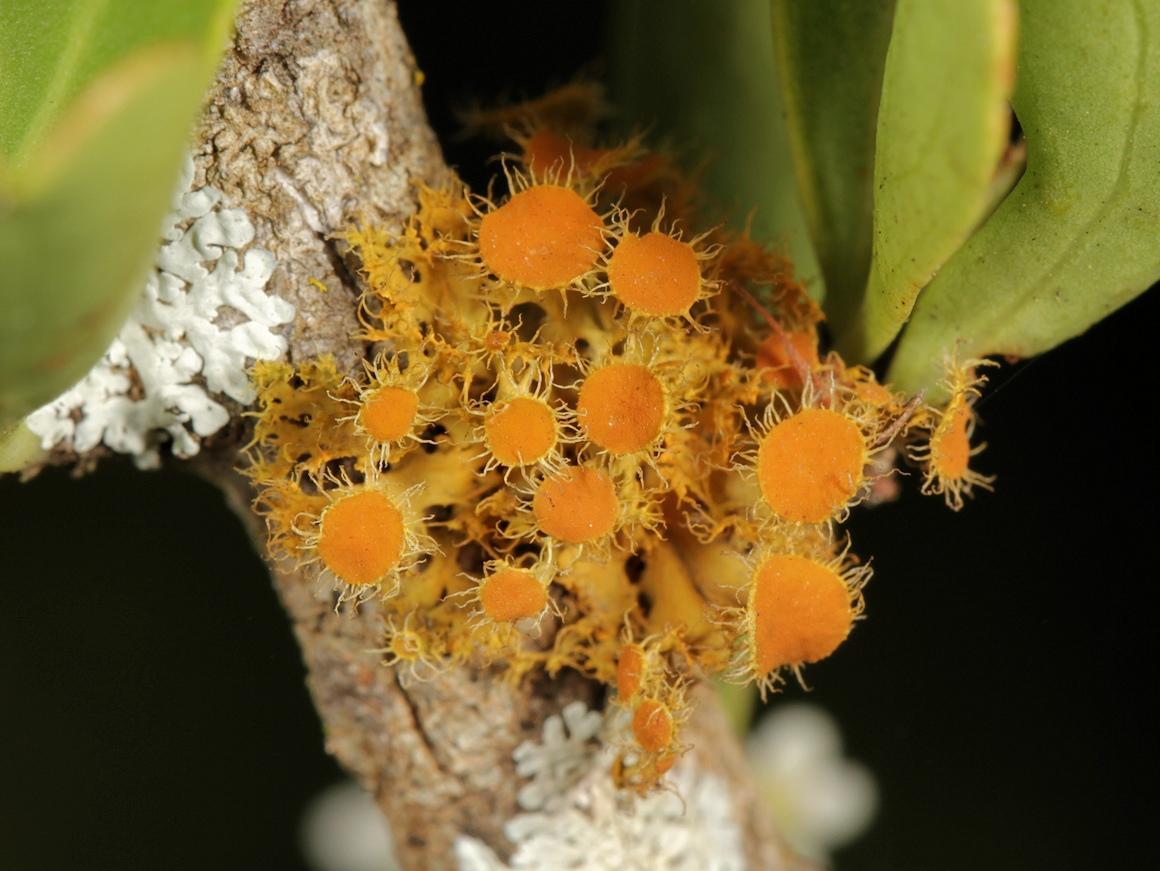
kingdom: Fungi
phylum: Ascomycota
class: Lecanoromycetes
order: Teloschistales
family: Teloschistaceae
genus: Niorma
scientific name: Niorma chrysophthalma
